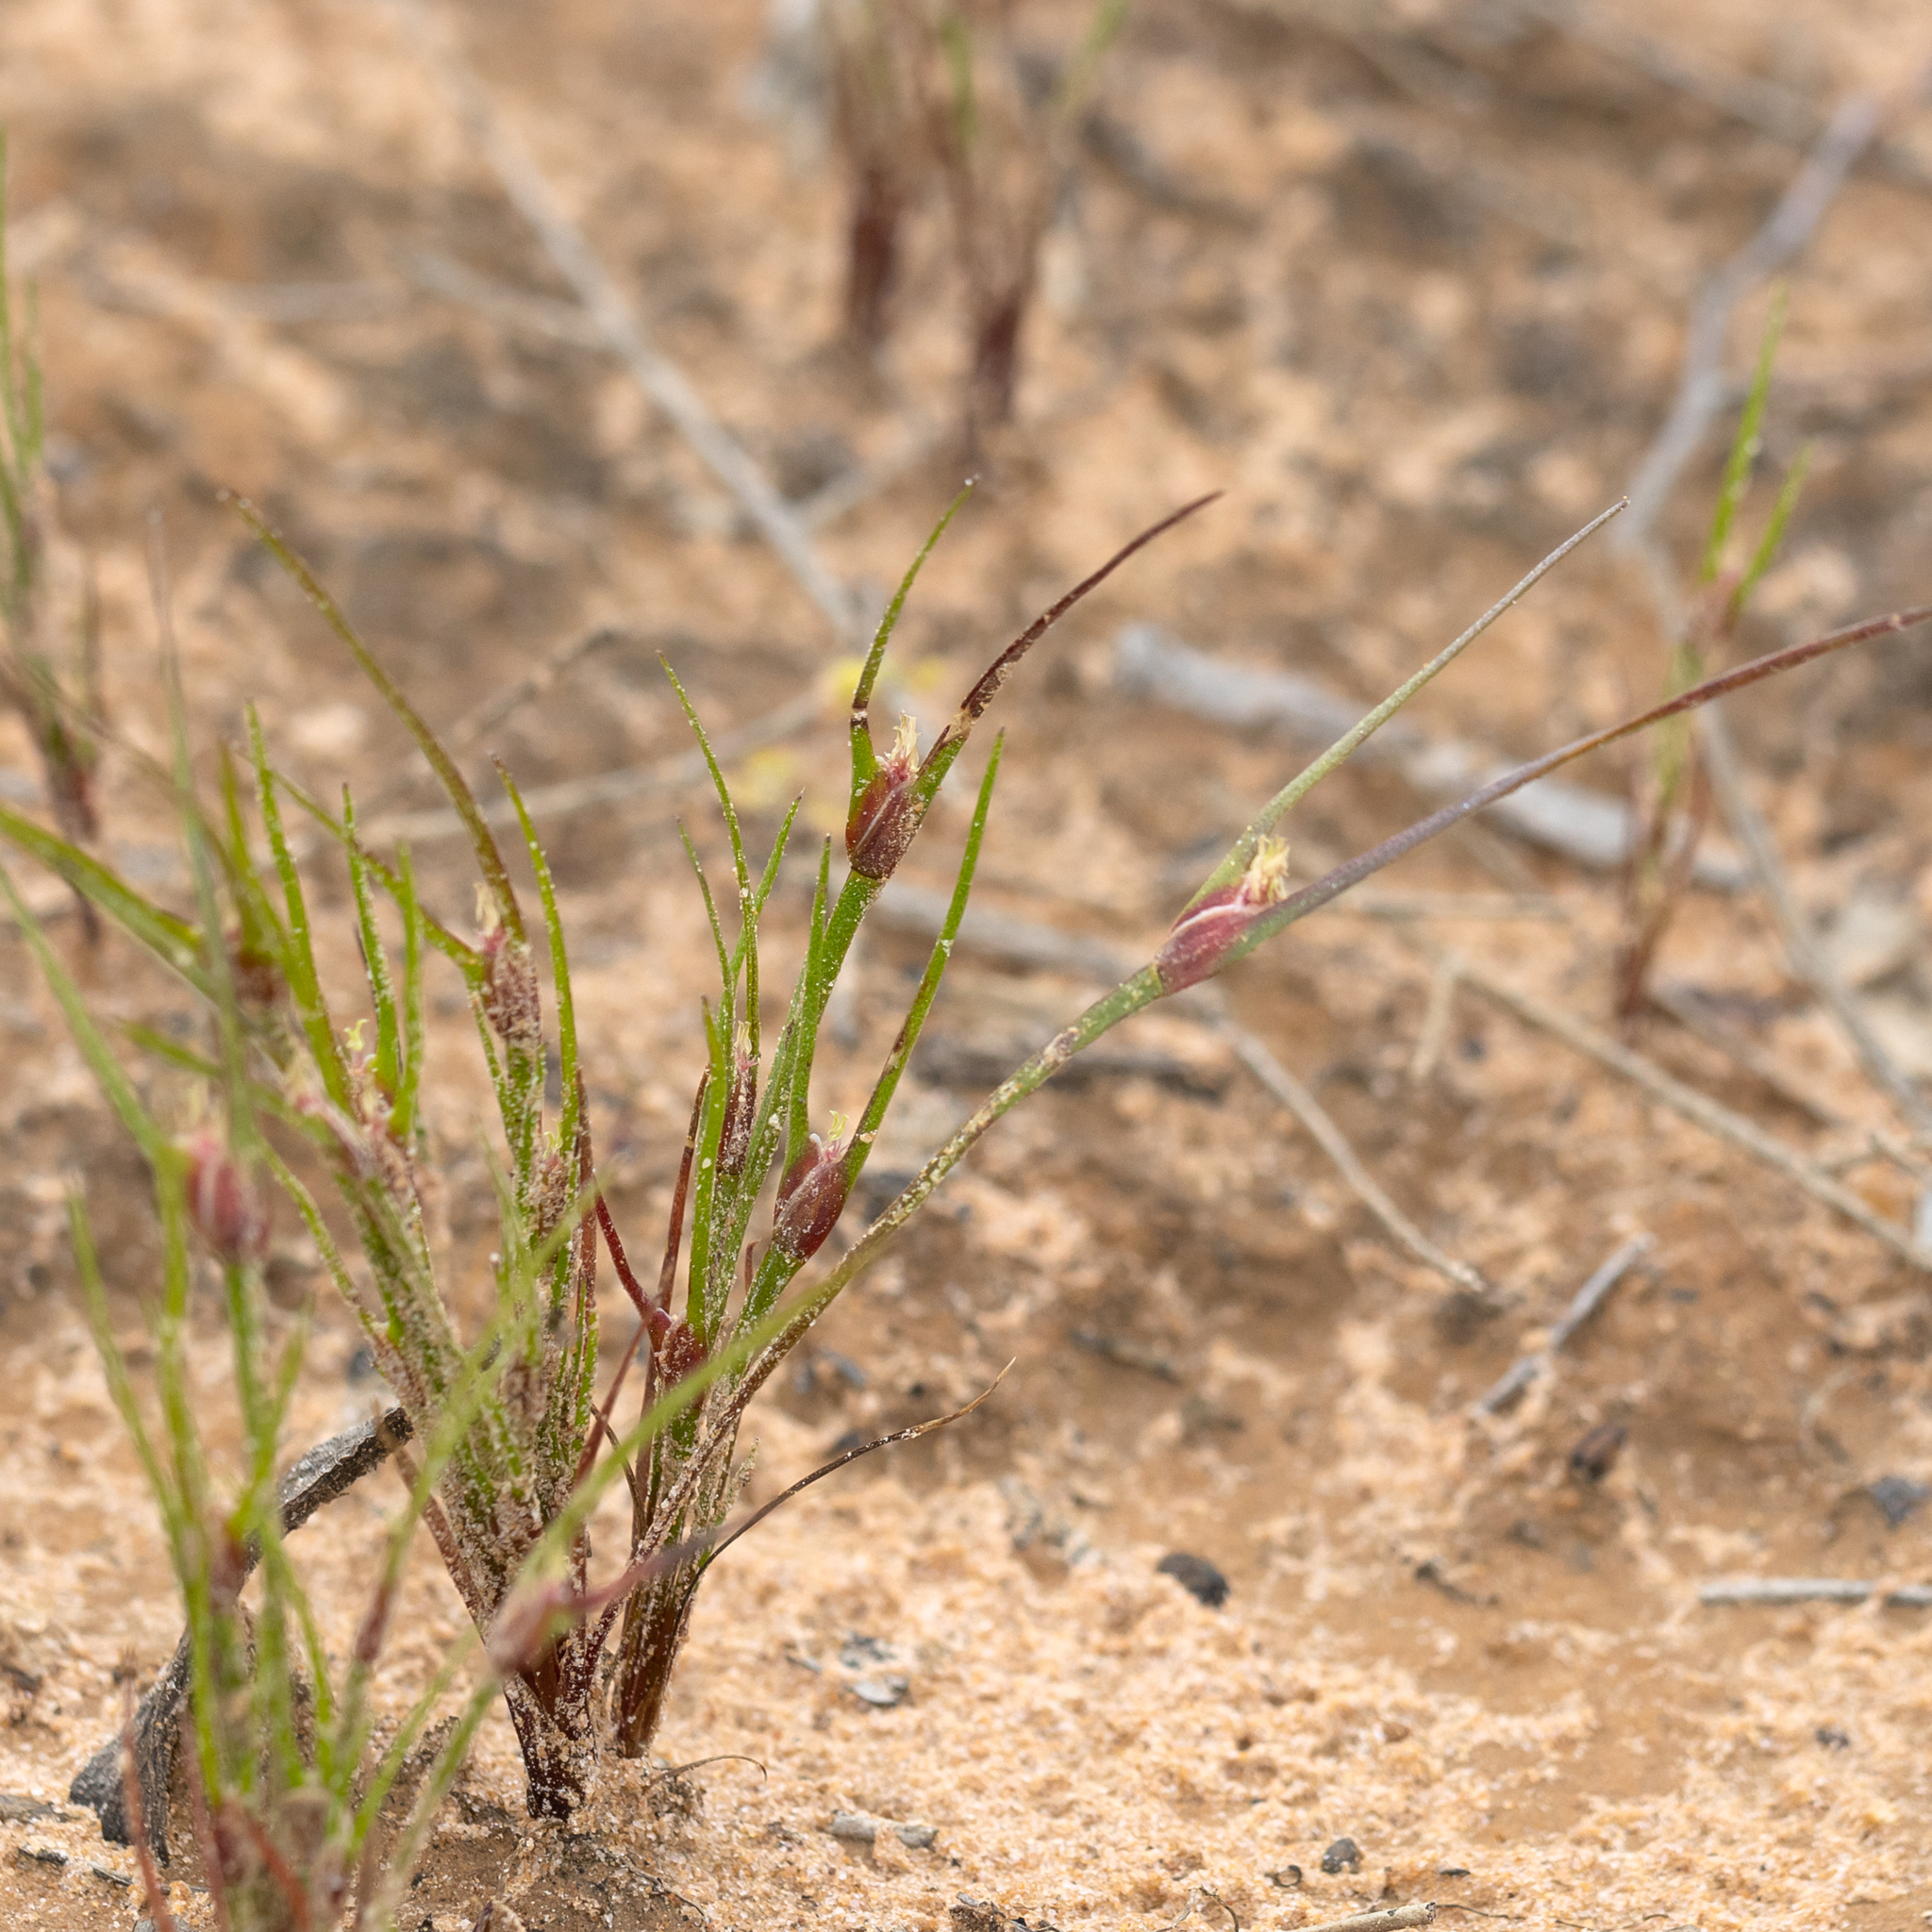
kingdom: Plantae
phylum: Tracheophyta
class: Liliopsida
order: Poales
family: Restionaceae
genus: Centrolepis
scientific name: Centrolepis aristata
